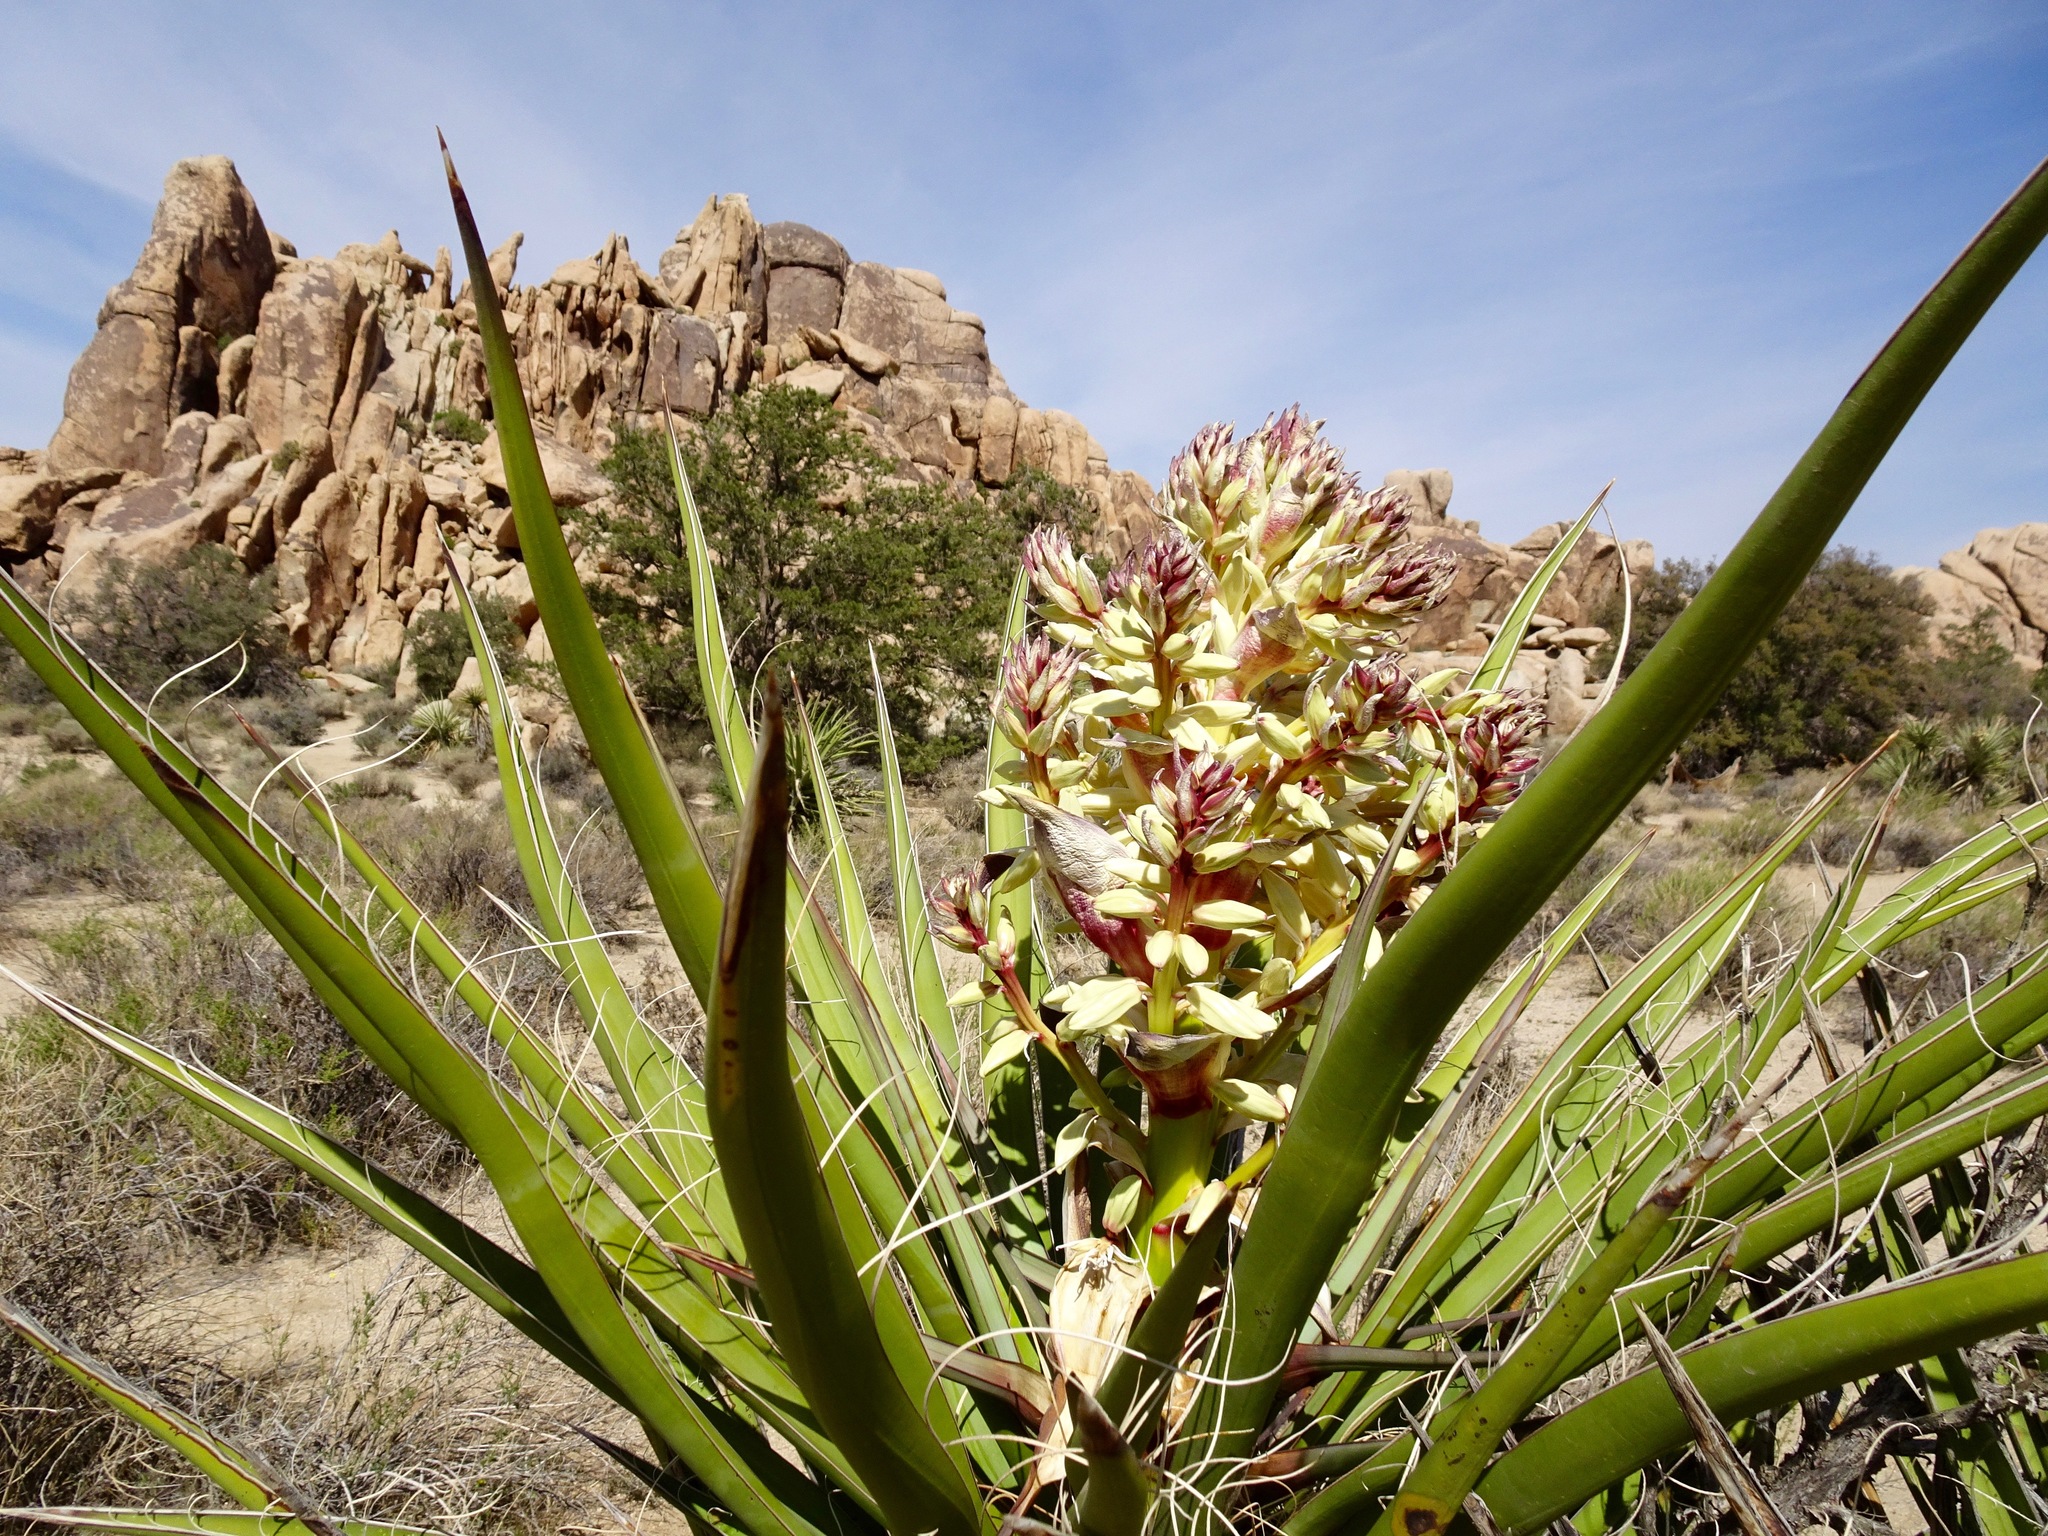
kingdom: Plantae
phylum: Tracheophyta
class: Liliopsida
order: Asparagales
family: Asparagaceae
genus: Yucca
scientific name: Yucca schidigera
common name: Mojave yucca
